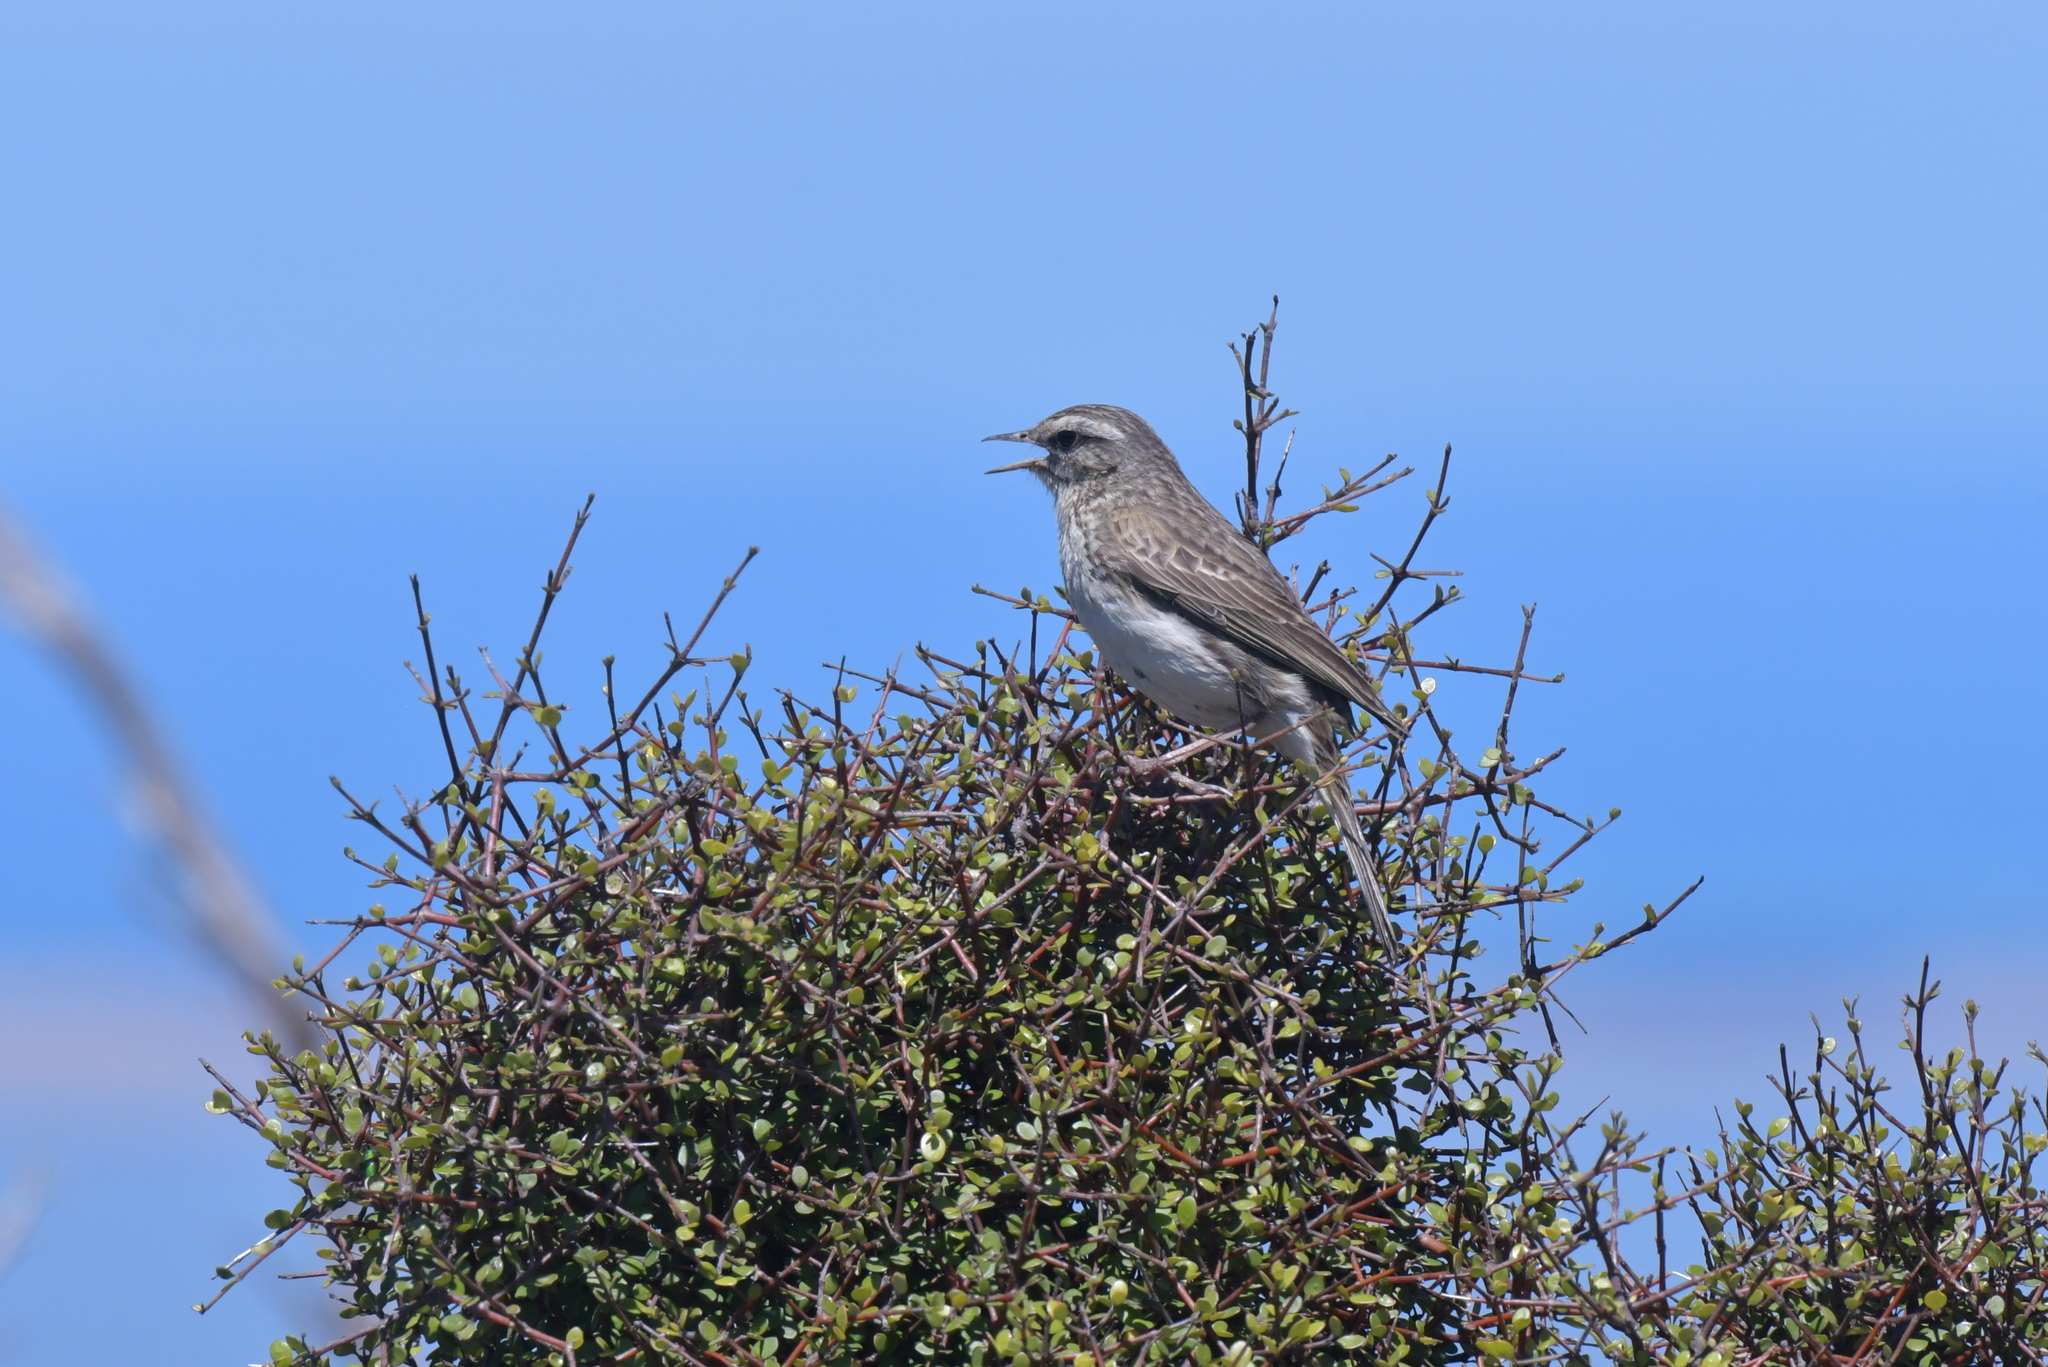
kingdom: Animalia
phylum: Chordata
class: Aves
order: Passeriformes
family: Motacillidae
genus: Anthus
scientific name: Anthus novaeseelandiae
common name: New zealand pipit
